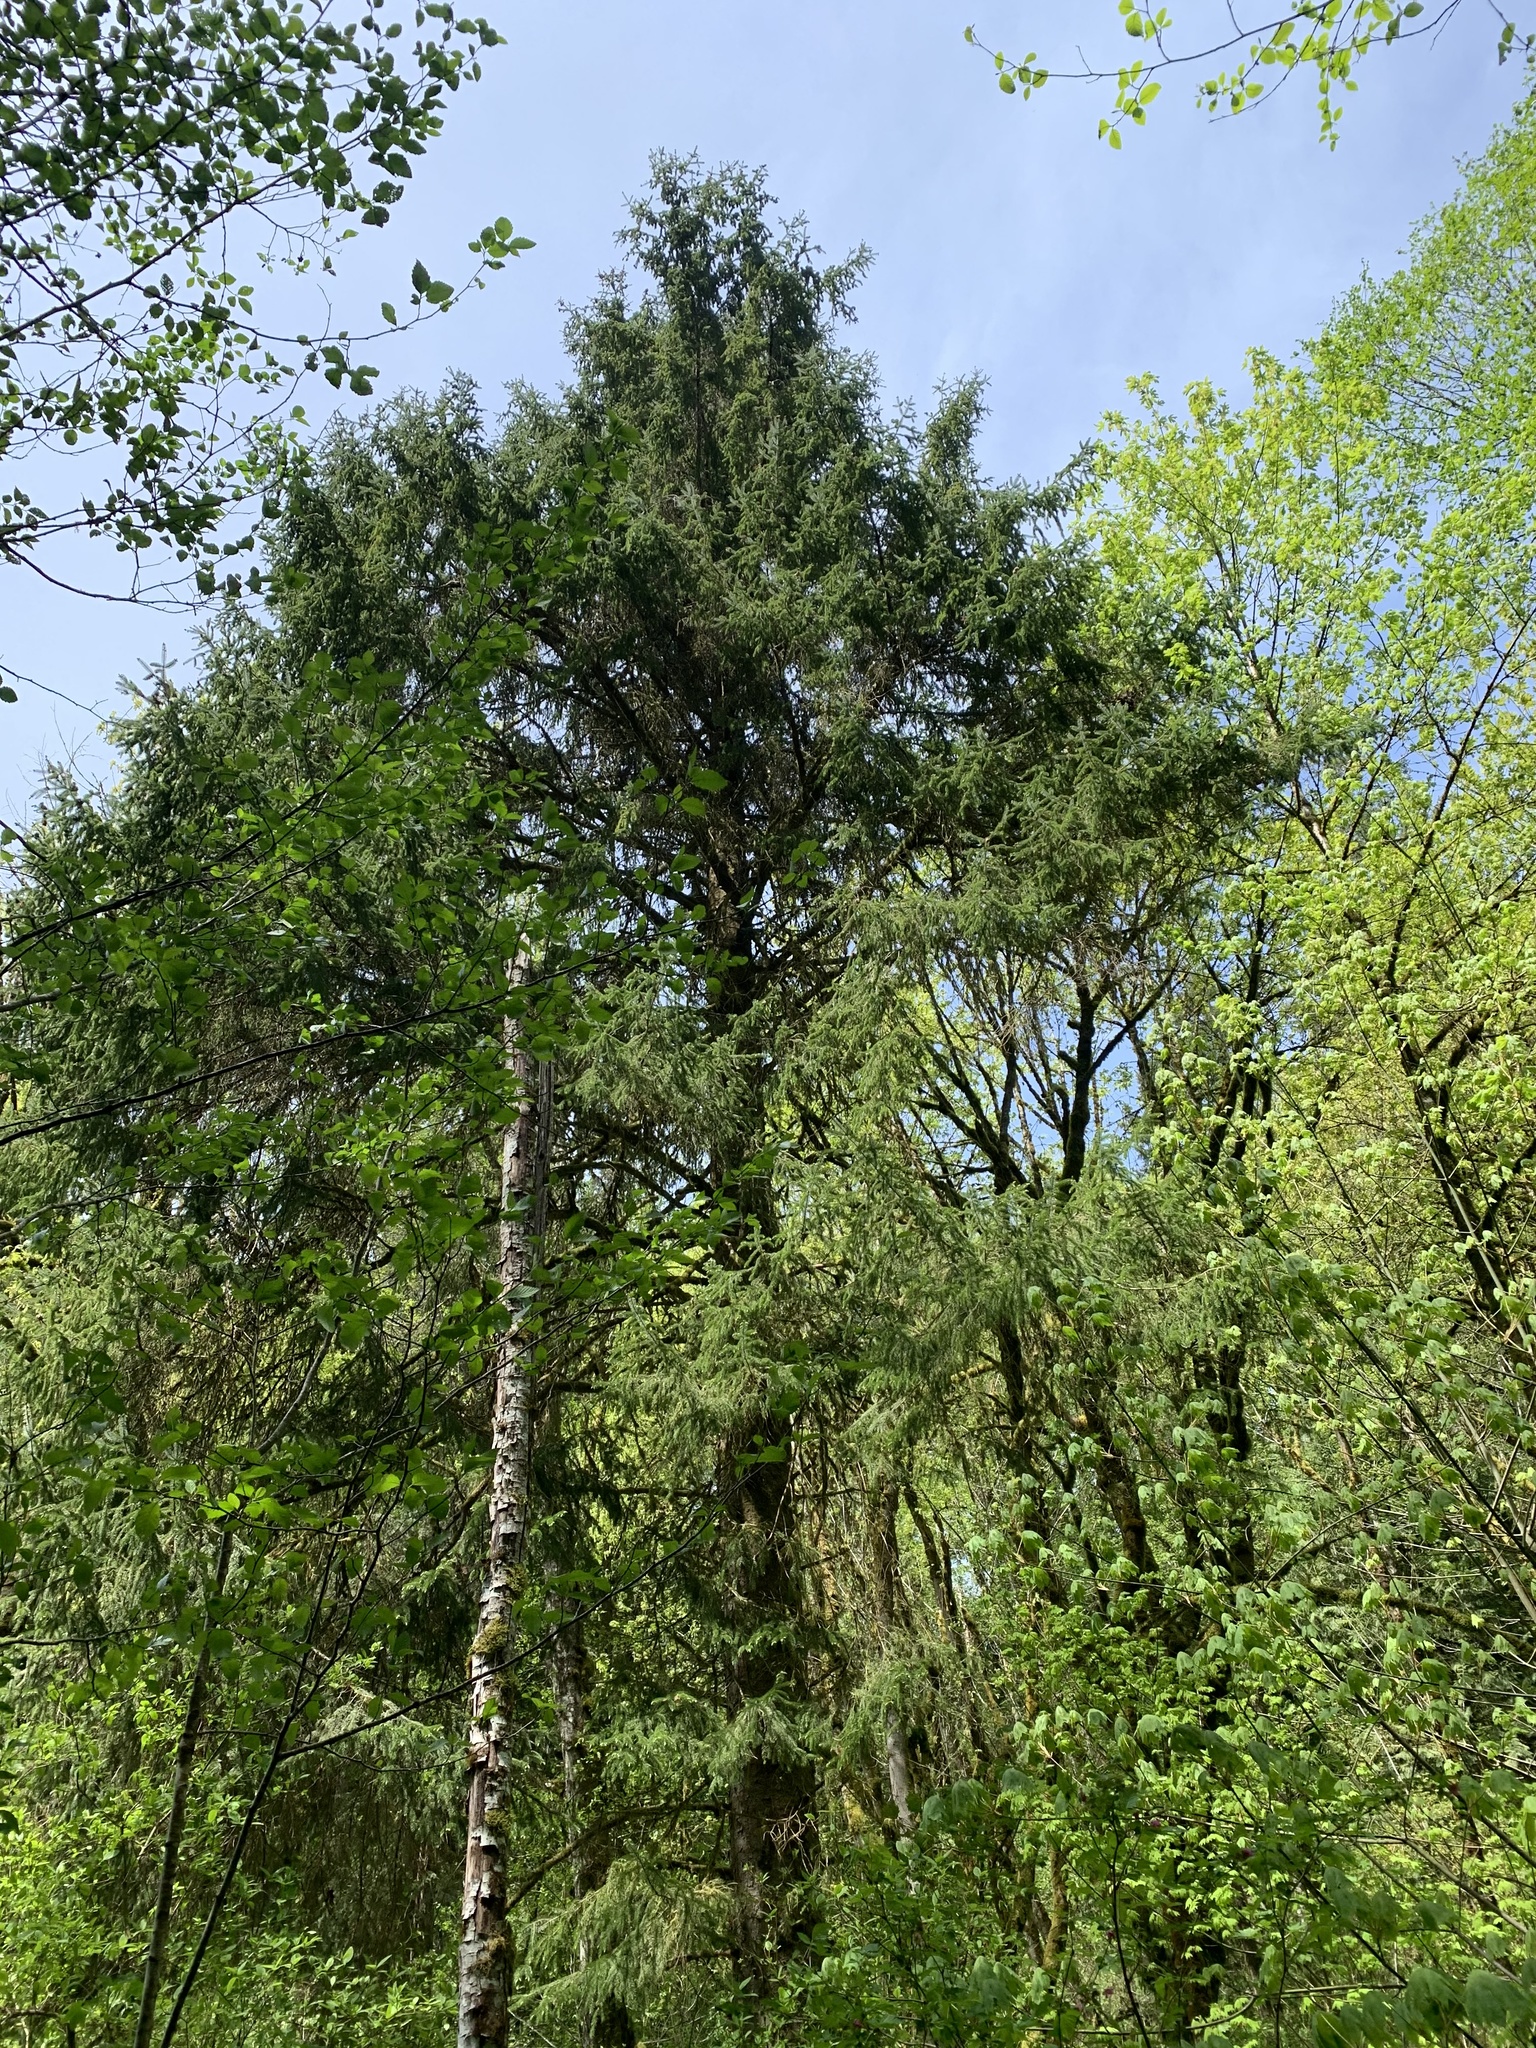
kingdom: Plantae
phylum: Tracheophyta
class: Pinopsida
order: Pinales
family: Pinaceae
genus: Picea
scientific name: Picea sitchensis
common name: Sitka spruce
